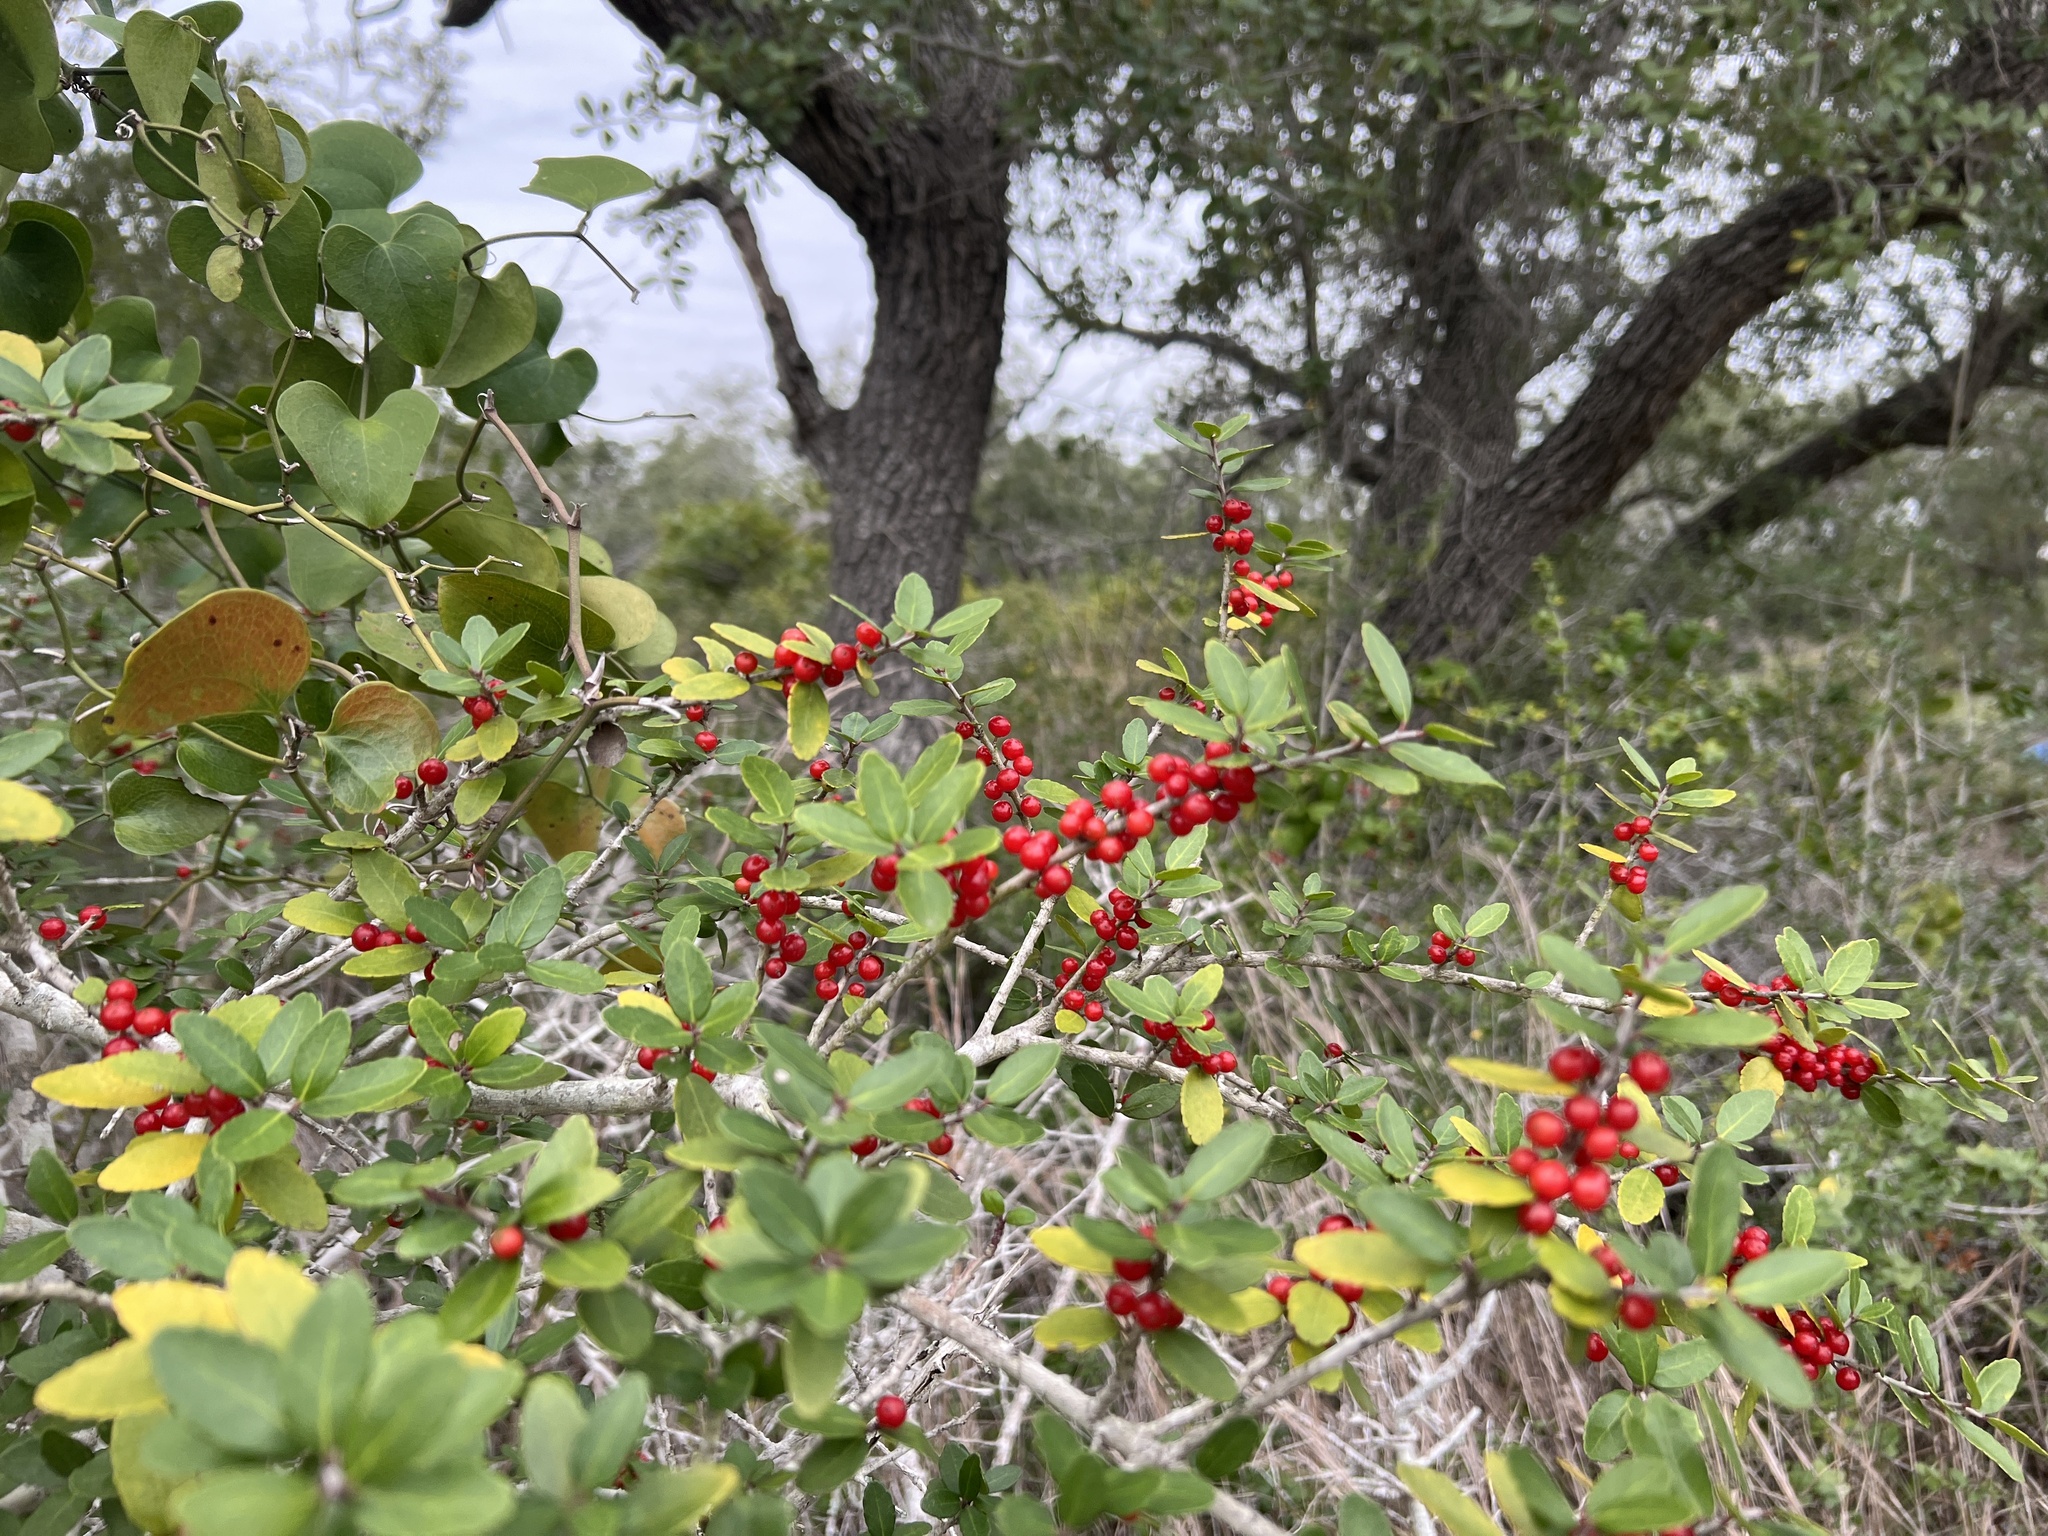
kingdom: Plantae
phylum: Tracheophyta
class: Magnoliopsida
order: Aquifoliales
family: Aquifoliaceae
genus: Ilex
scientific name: Ilex vomitoria
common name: Yaupon holly
